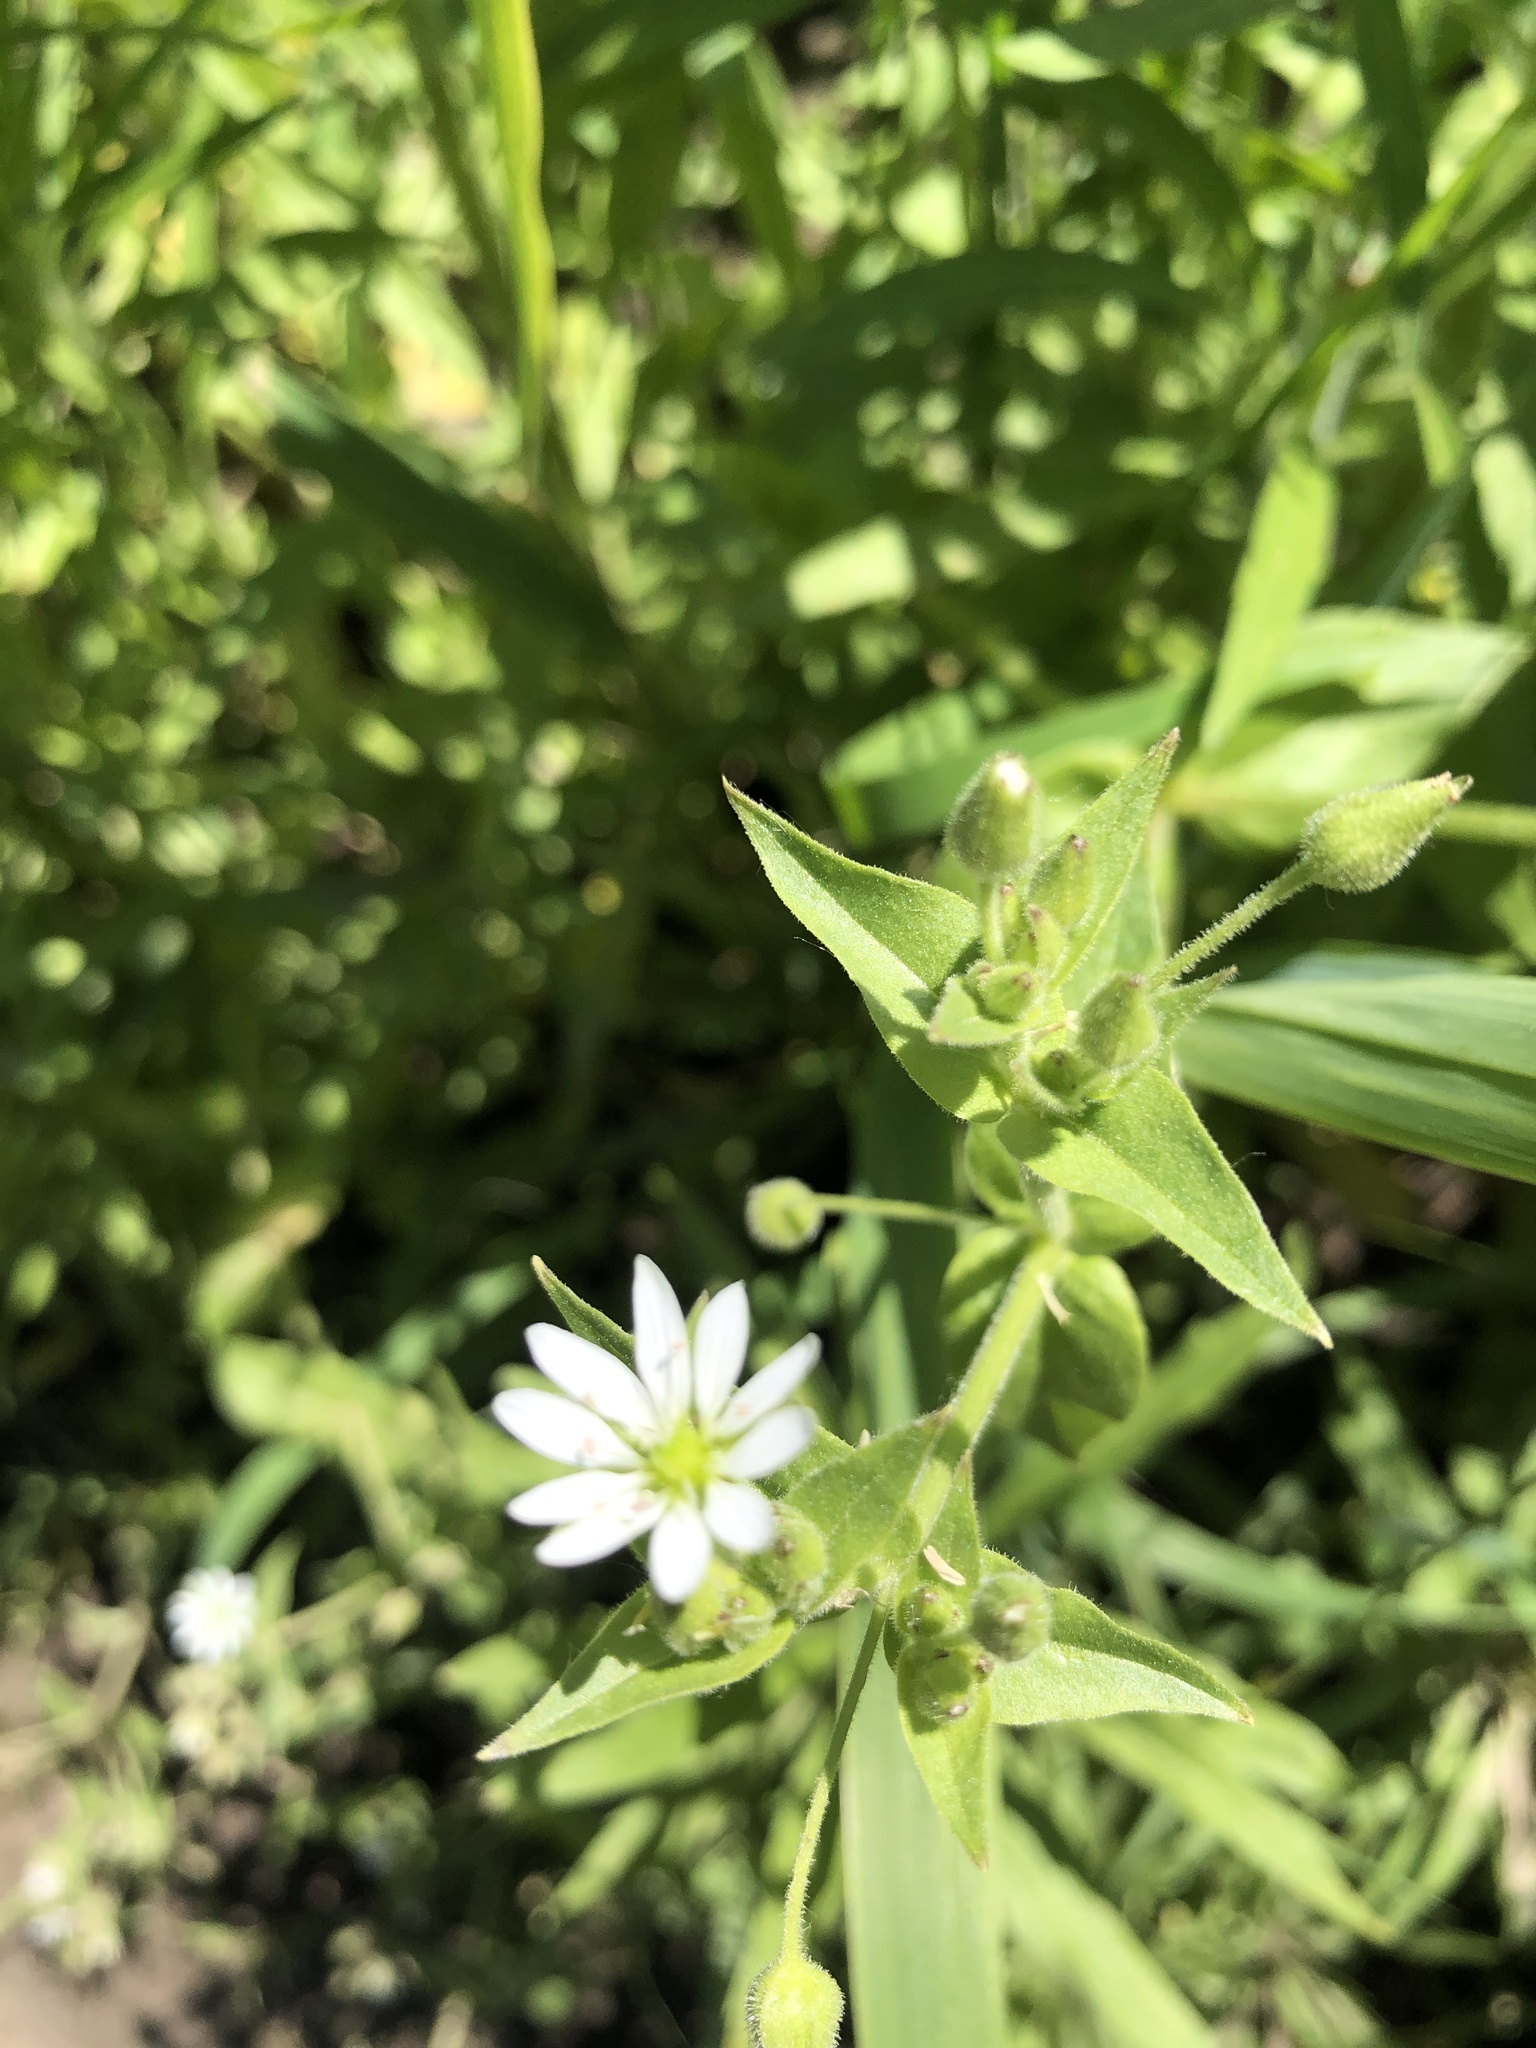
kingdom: Plantae
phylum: Tracheophyta
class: Magnoliopsida
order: Caryophyllales
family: Caryophyllaceae
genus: Stellaria
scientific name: Stellaria aquatica
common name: Water chickweed
